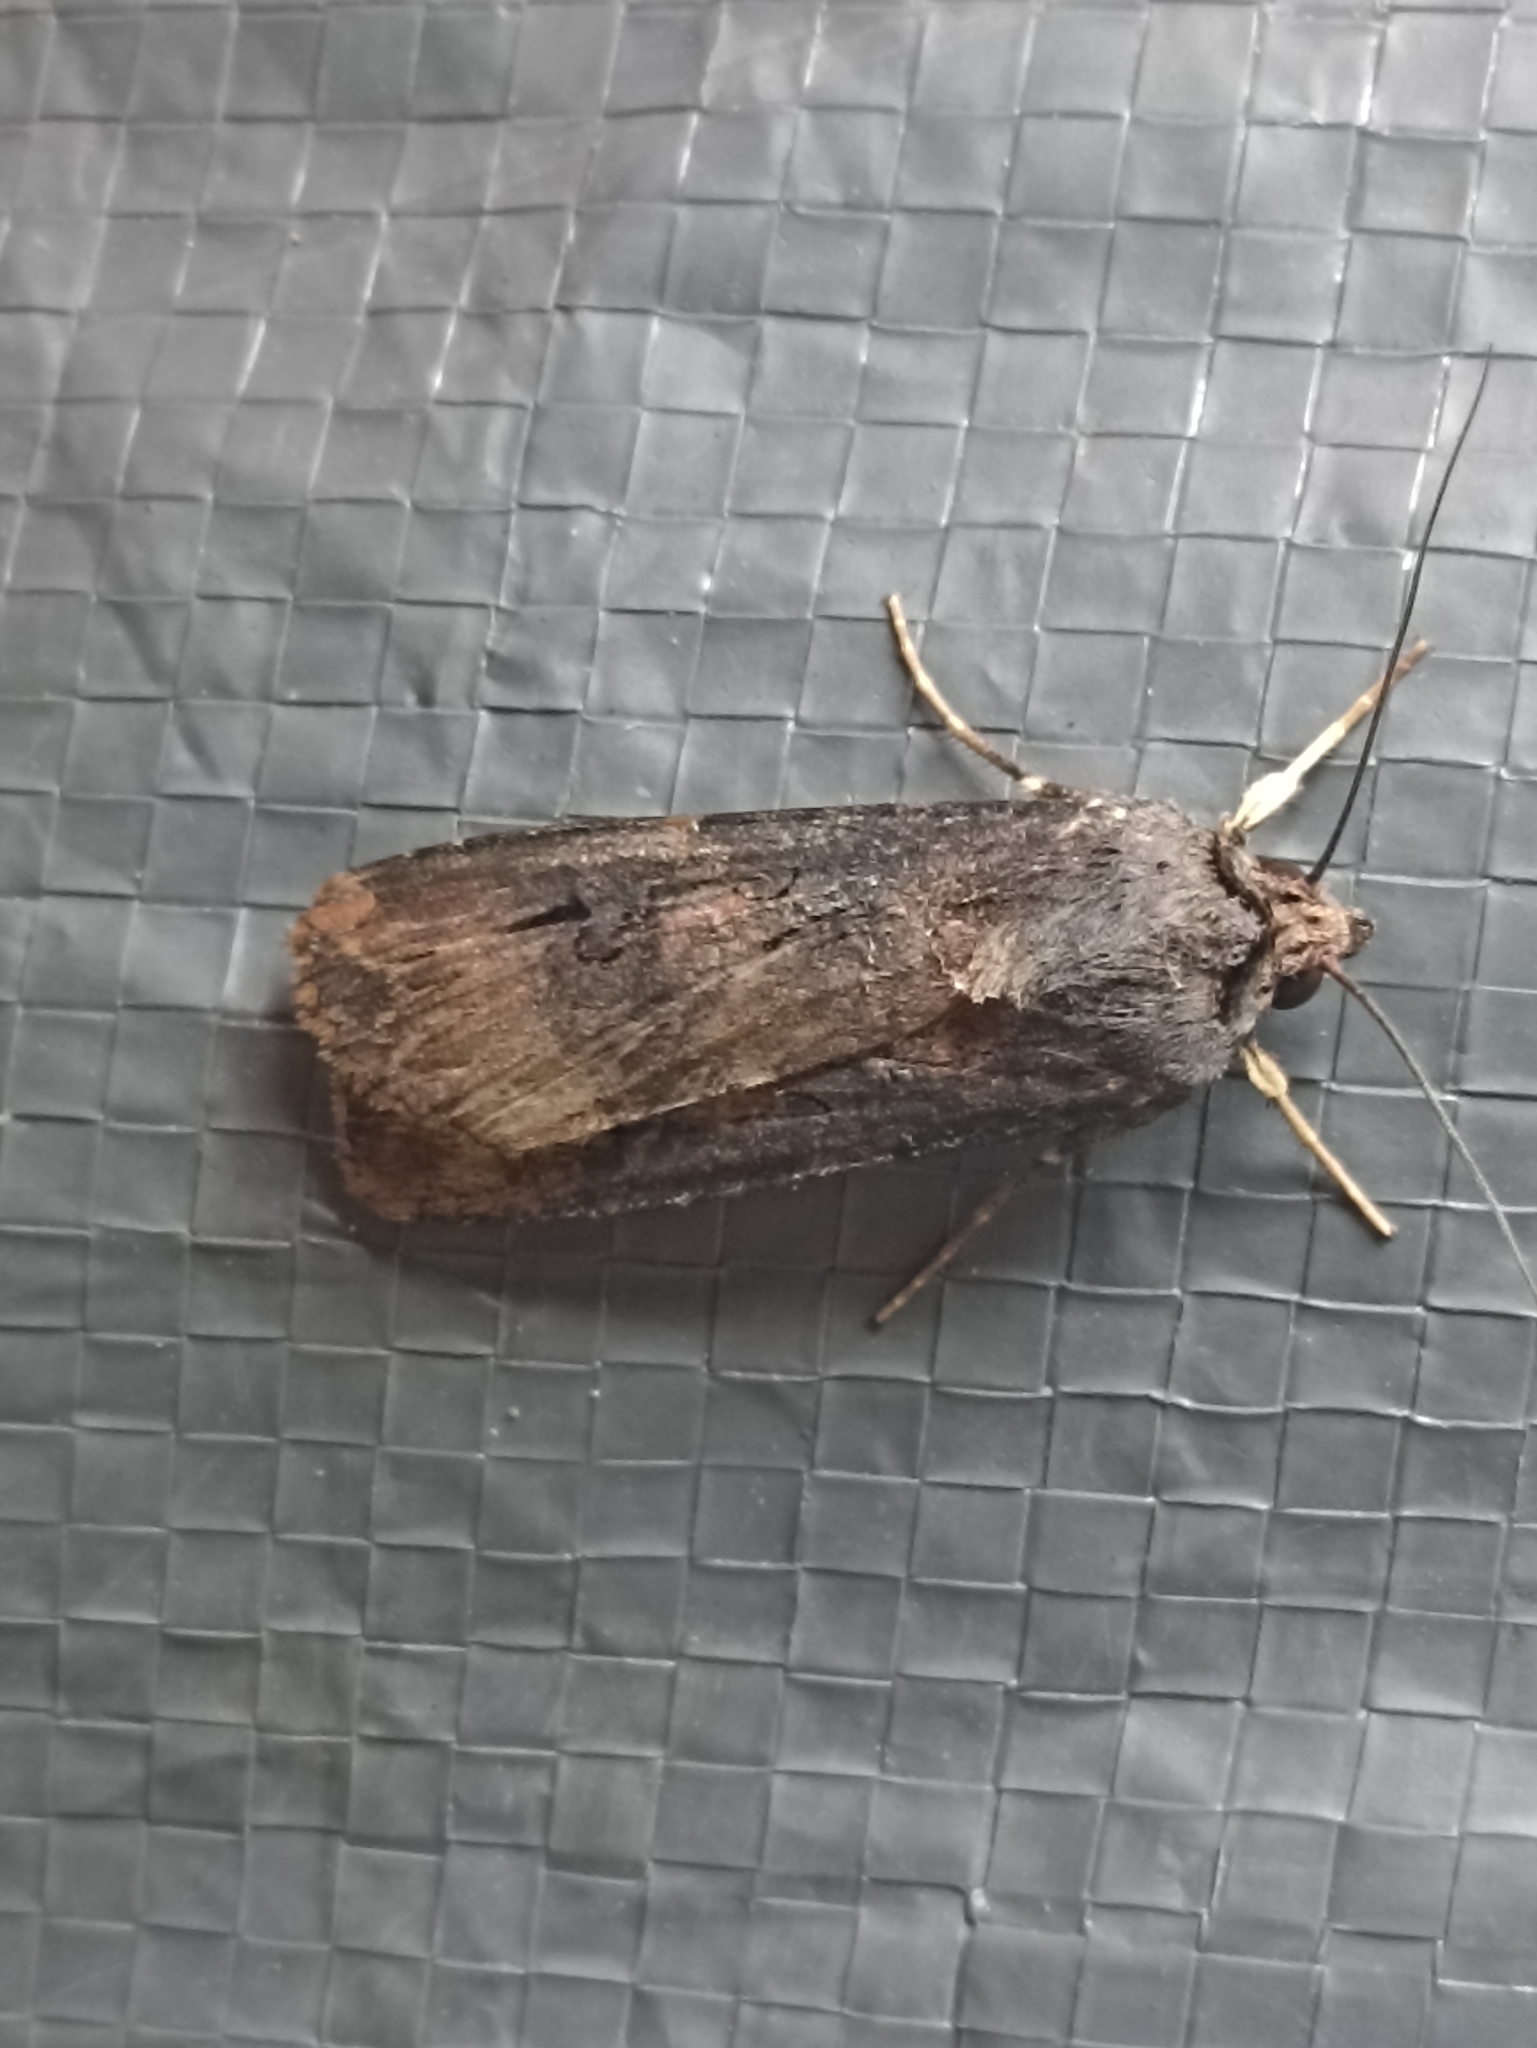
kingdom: Animalia
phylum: Arthropoda
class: Insecta
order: Lepidoptera
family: Noctuidae
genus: Agrotis
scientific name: Agrotis ipsilon
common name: Dark sword-grass
